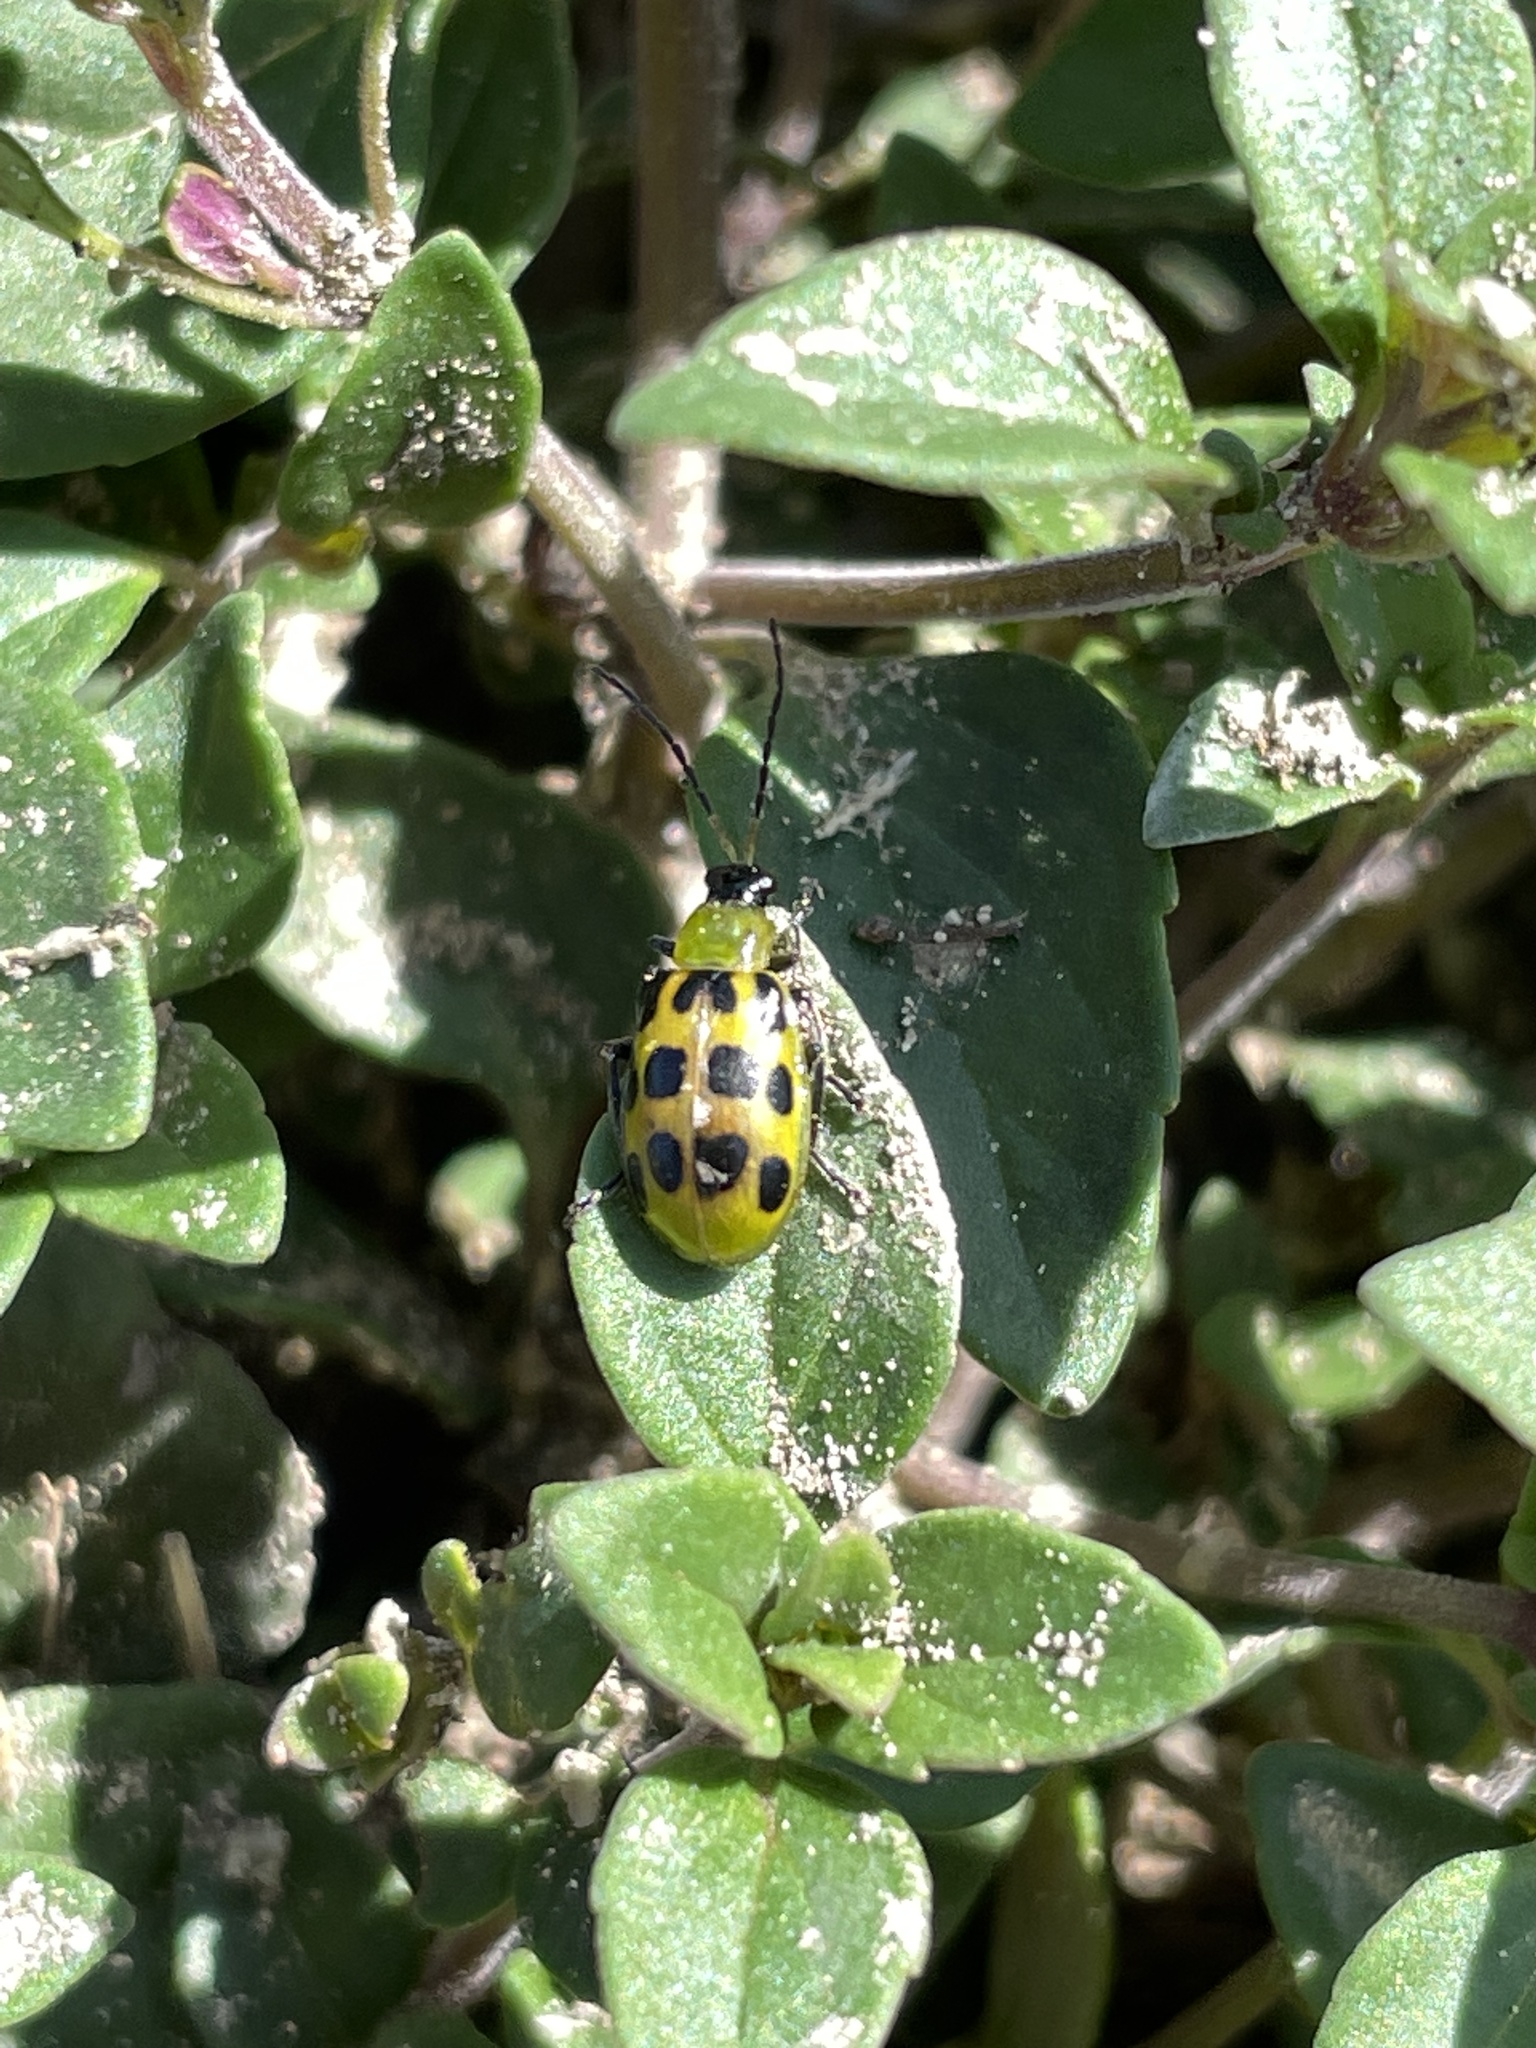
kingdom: Animalia
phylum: Arthropoda
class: Insecta
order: Coleoptera
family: Chrysomelidae
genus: Diabrotica
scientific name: Diabrotica undecimpunctata
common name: Spotted cucumber beetle
